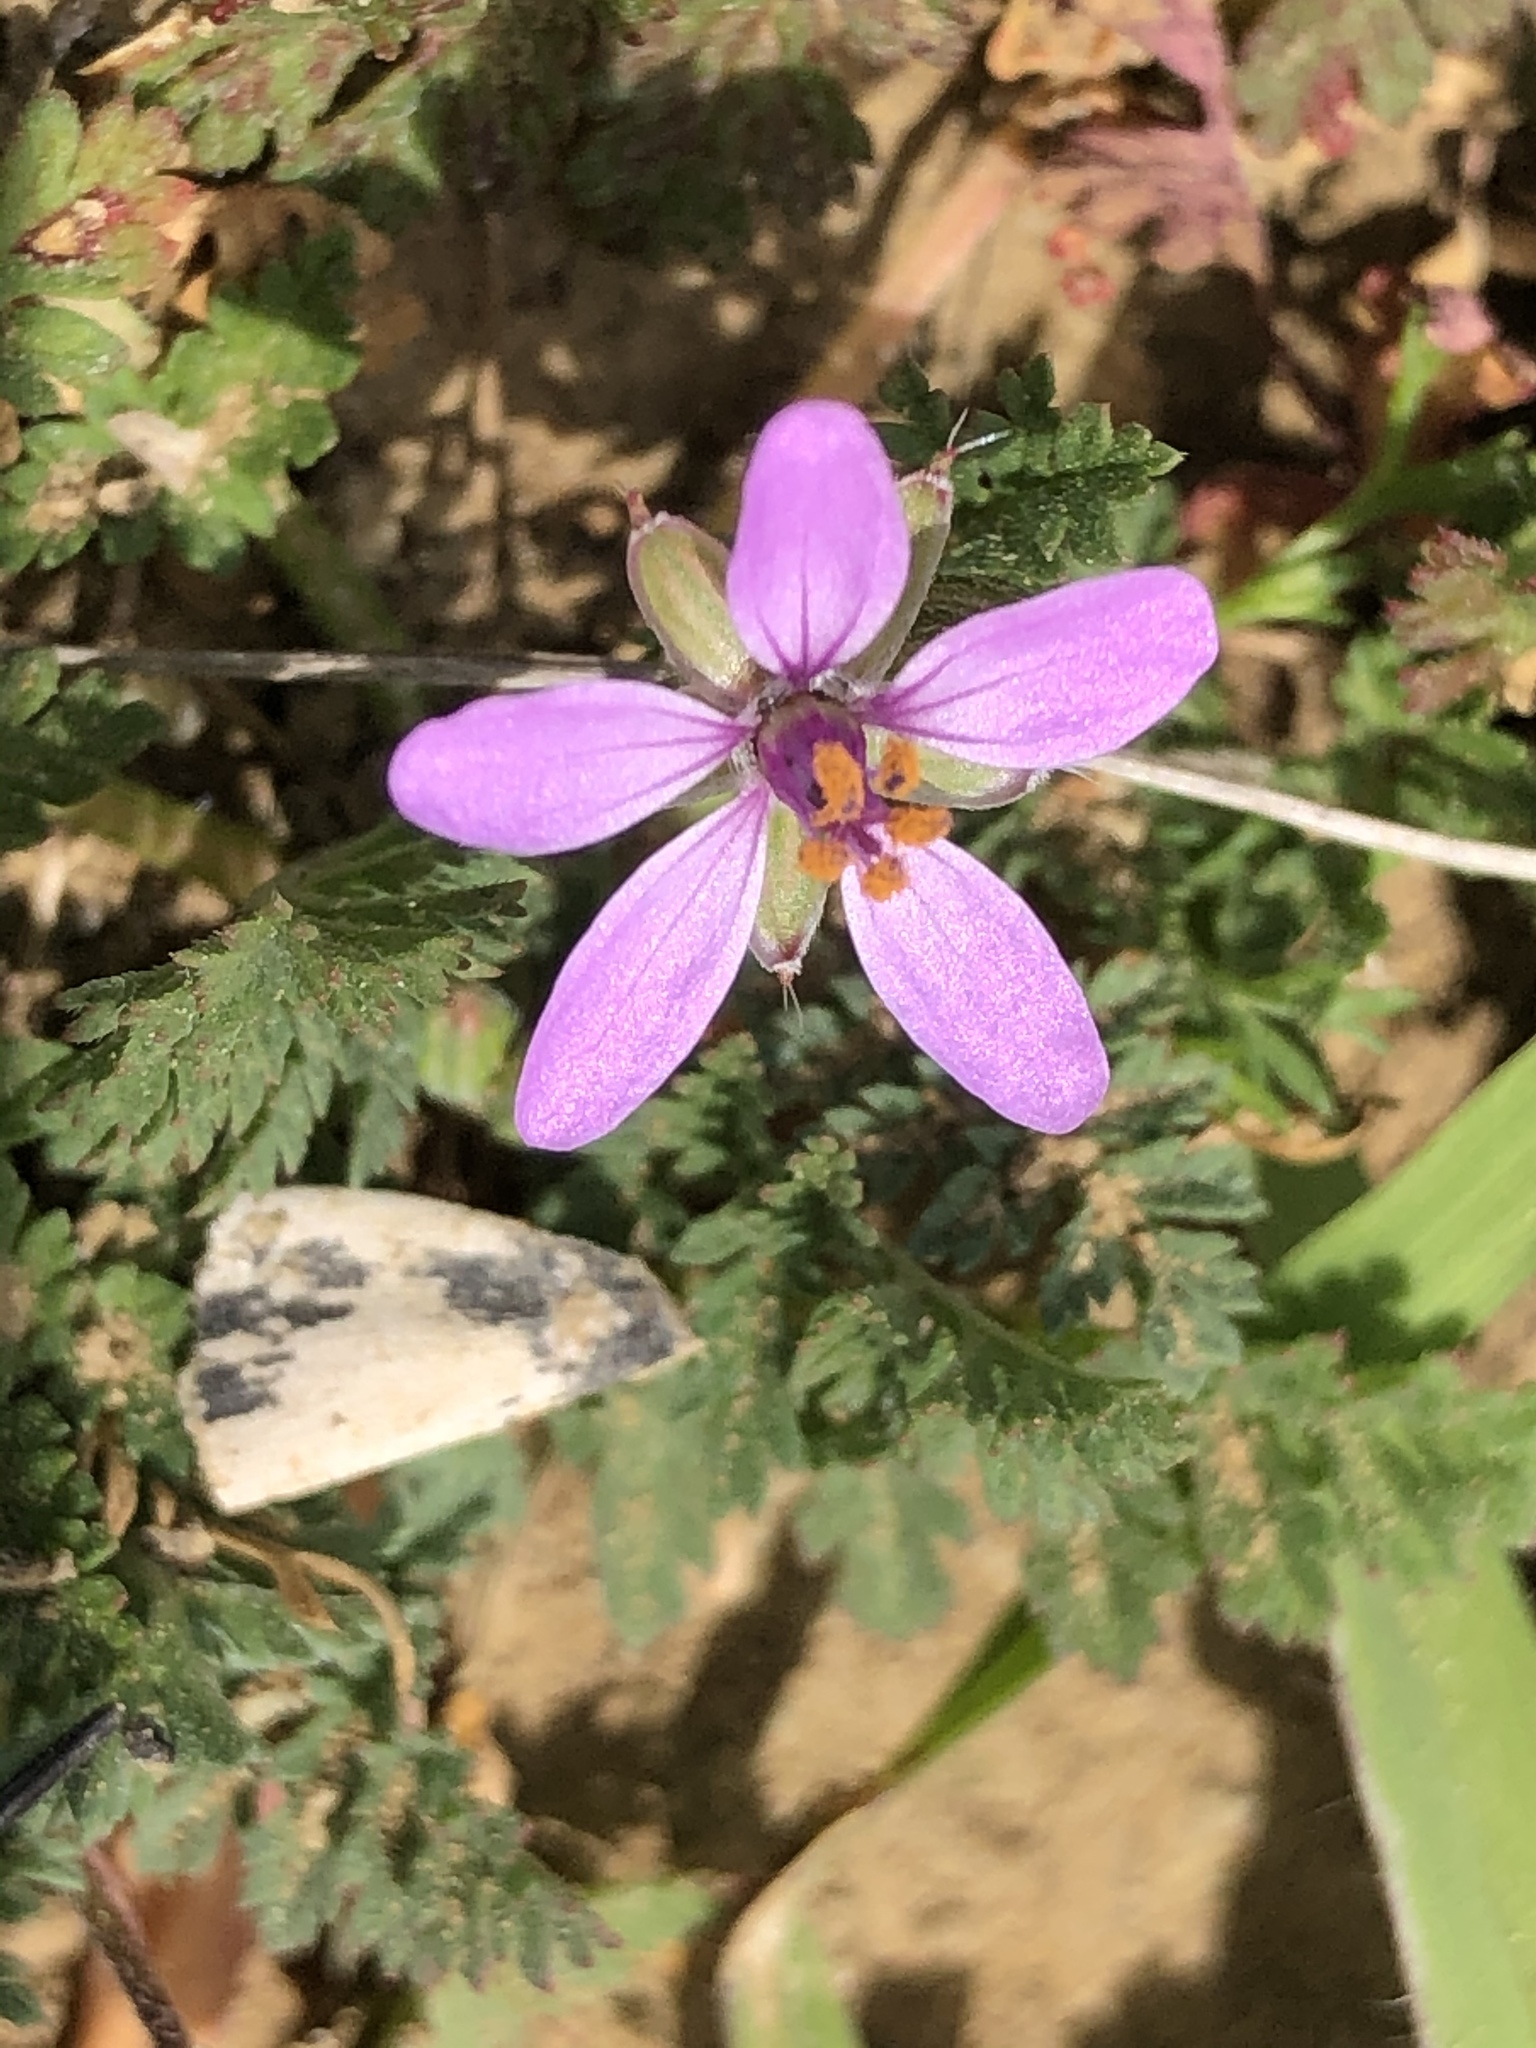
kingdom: Plantae
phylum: Tracheophyta
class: Magnoliopsida
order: Geraniales
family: Geraniaceae
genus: Erodium
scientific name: Erodium cicutarium
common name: Common stork's-bill
